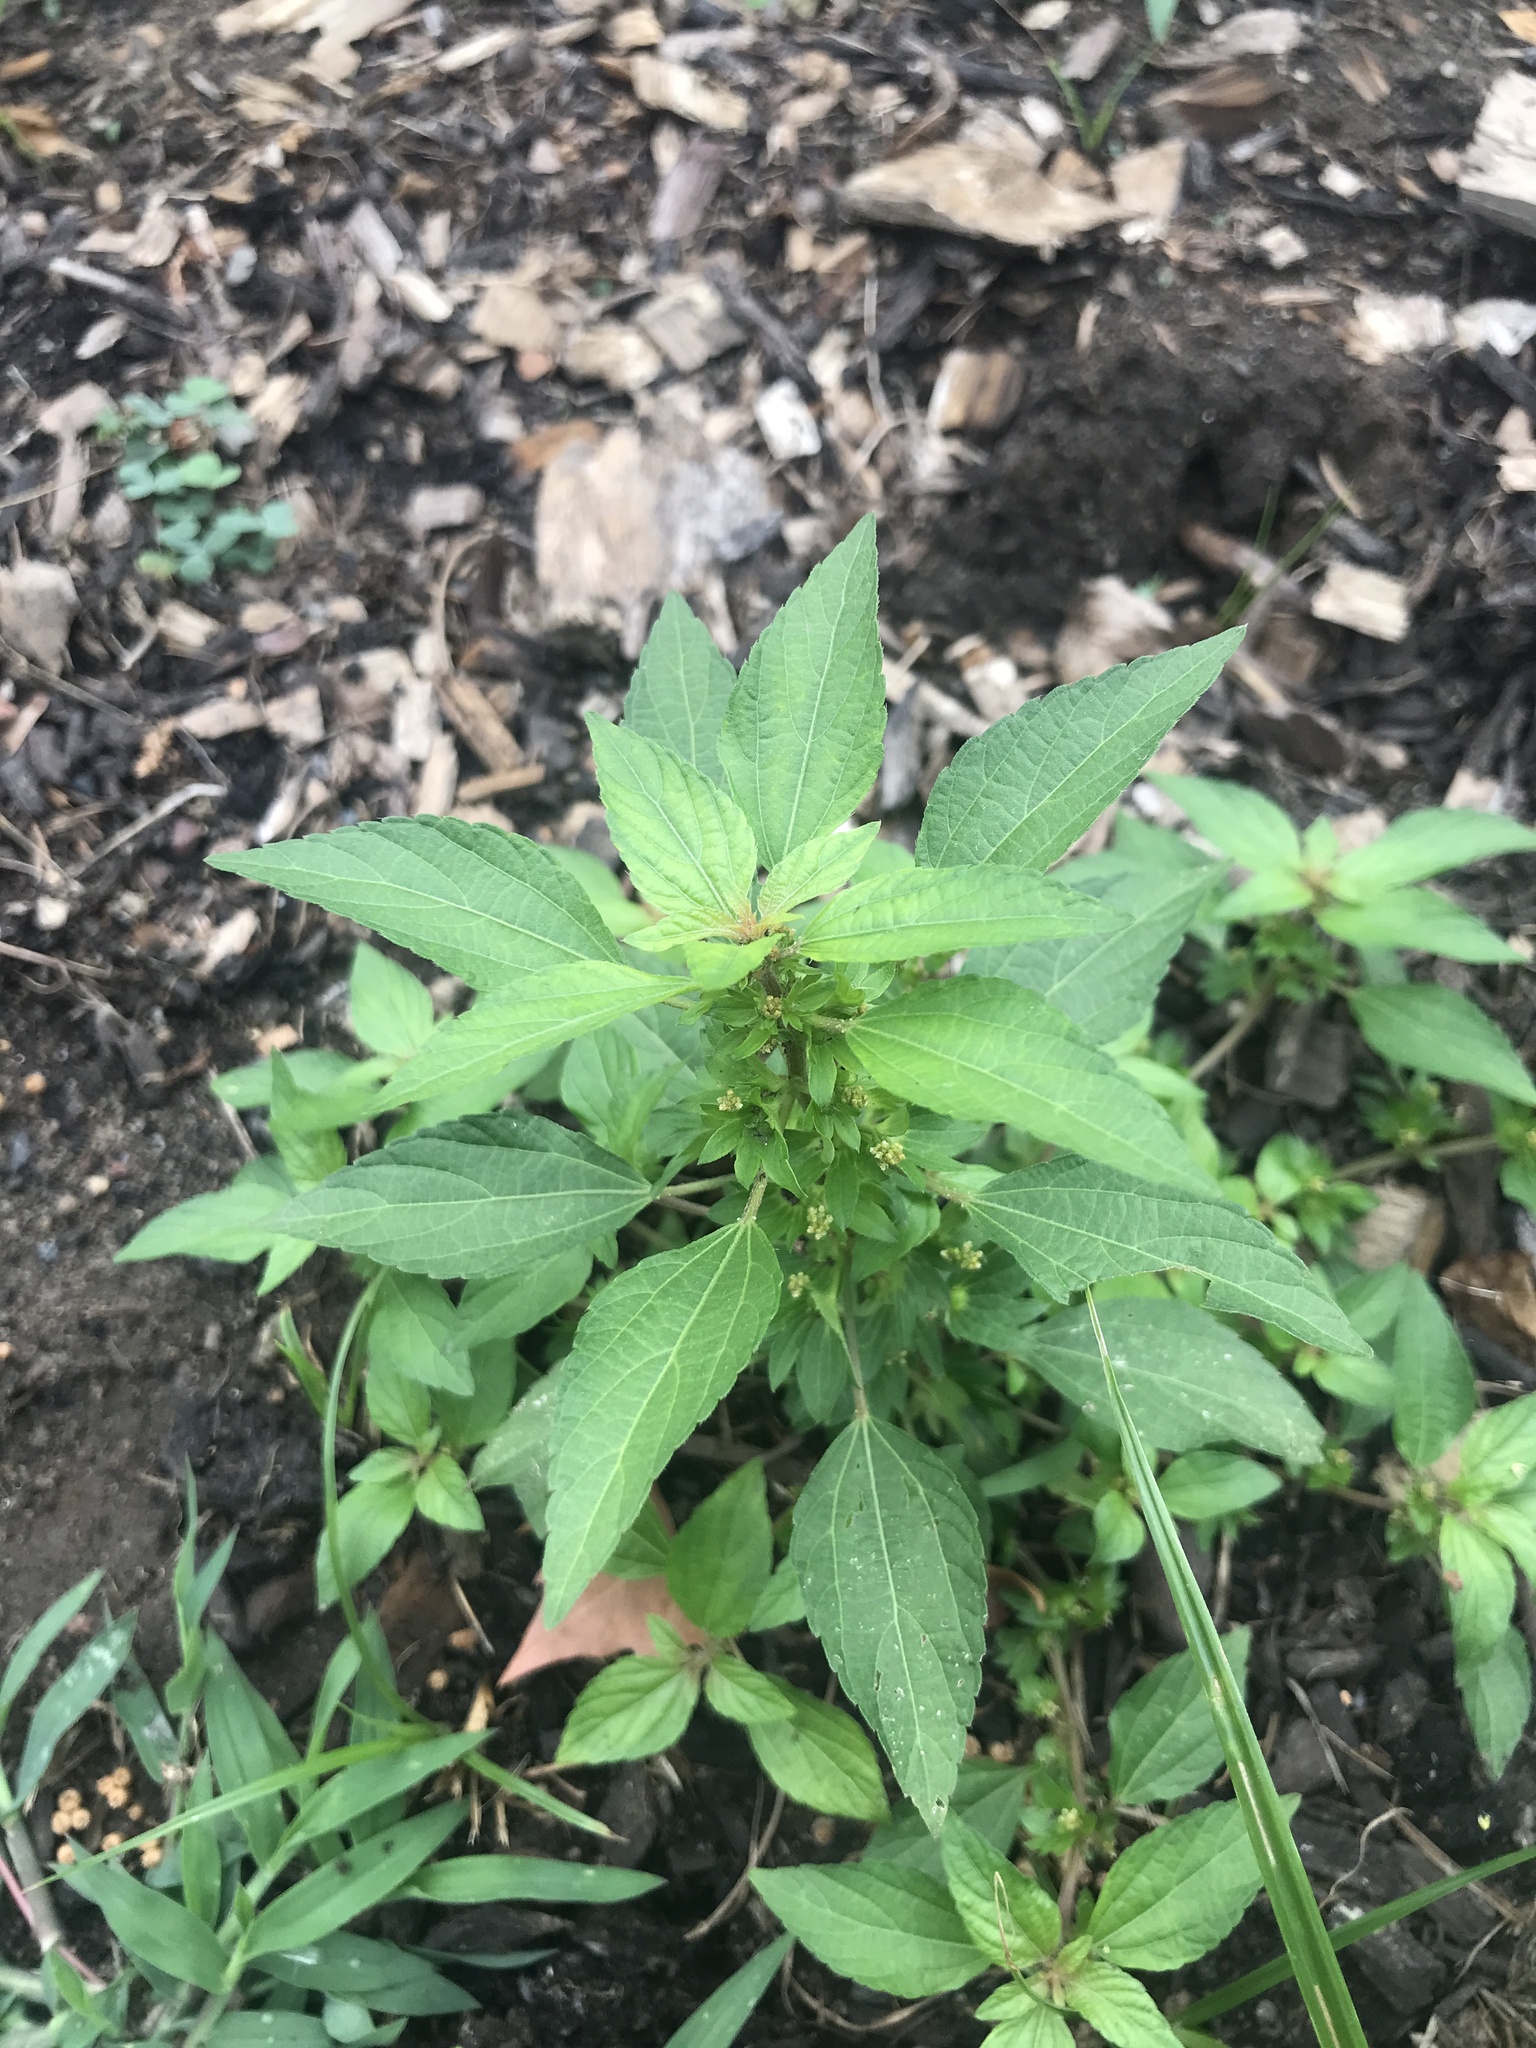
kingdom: Plantae
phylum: Tracheophyta
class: Magnoliopsida
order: Malpighiales
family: Euphorbiaceae
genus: Acalypha
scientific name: Acalypha rhomboidea
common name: Rhombic copperleaf
